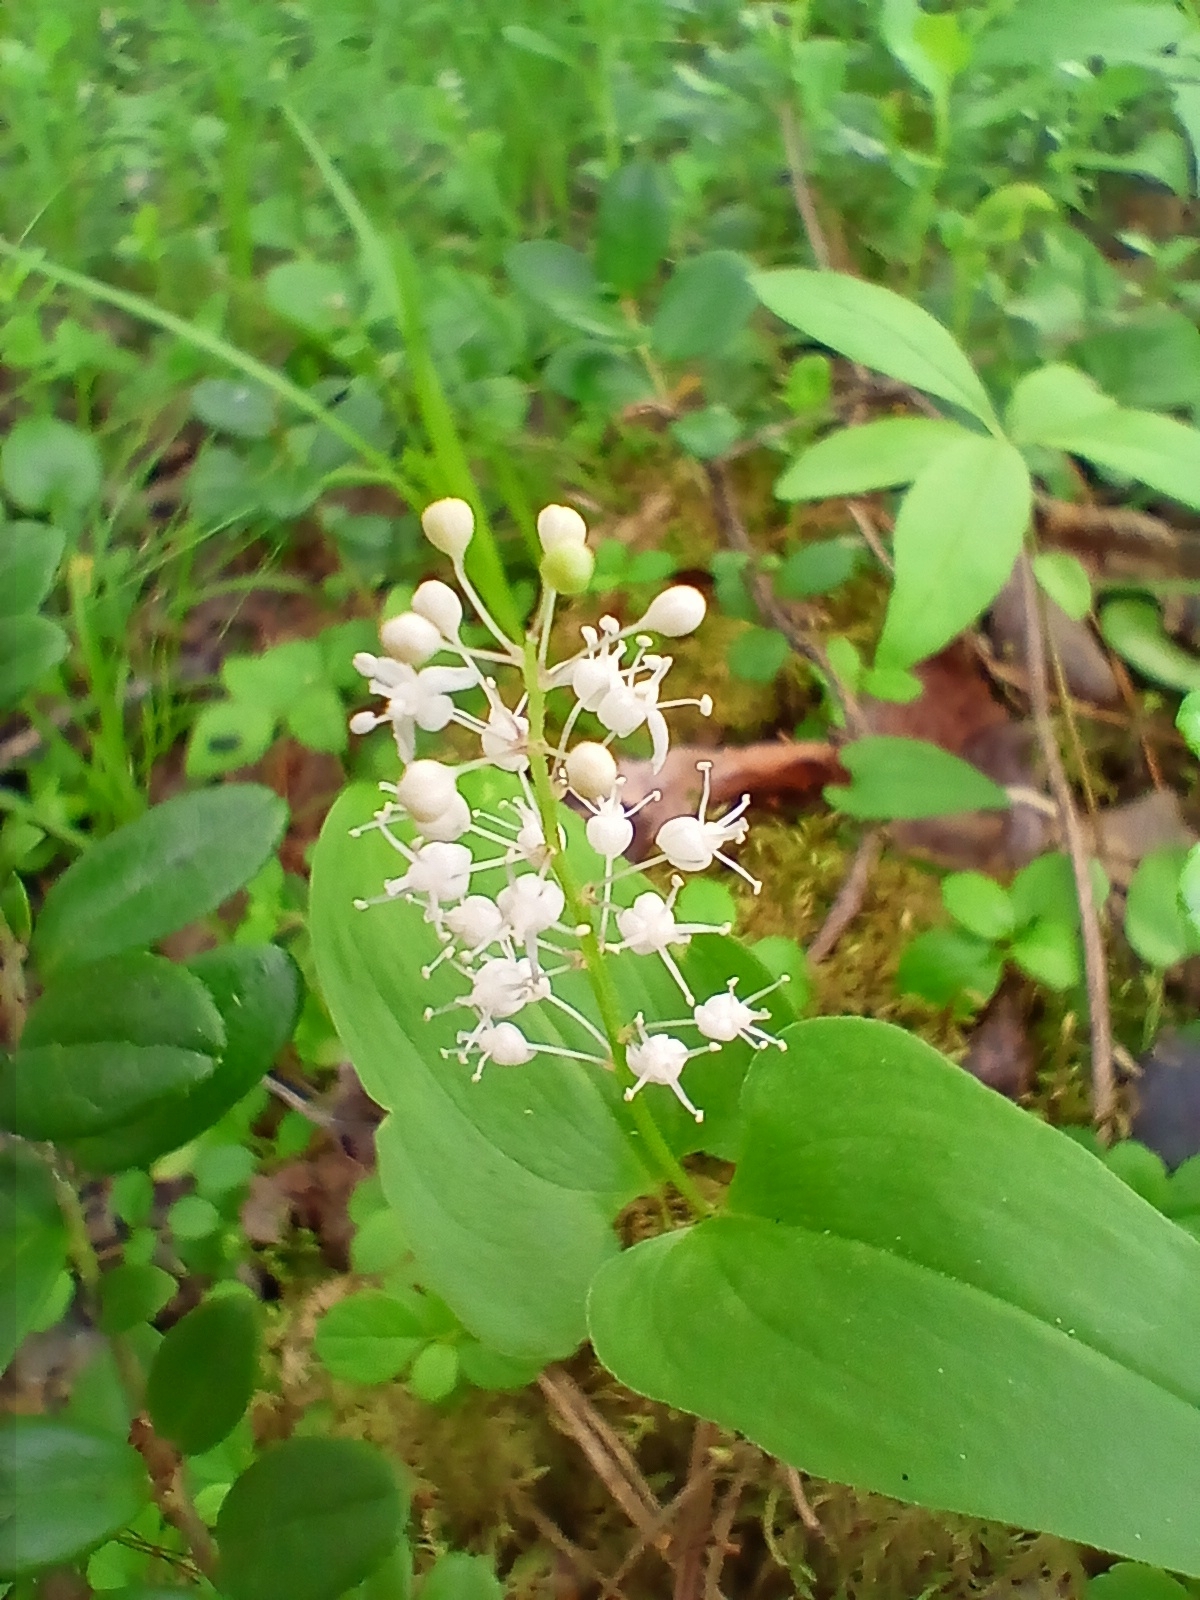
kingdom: Plantae
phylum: Tracheophyta
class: Liliopsida
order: Asparagales
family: Asparagaceae
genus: Maianthemum
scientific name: Maianthemum bifolium
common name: May lily
